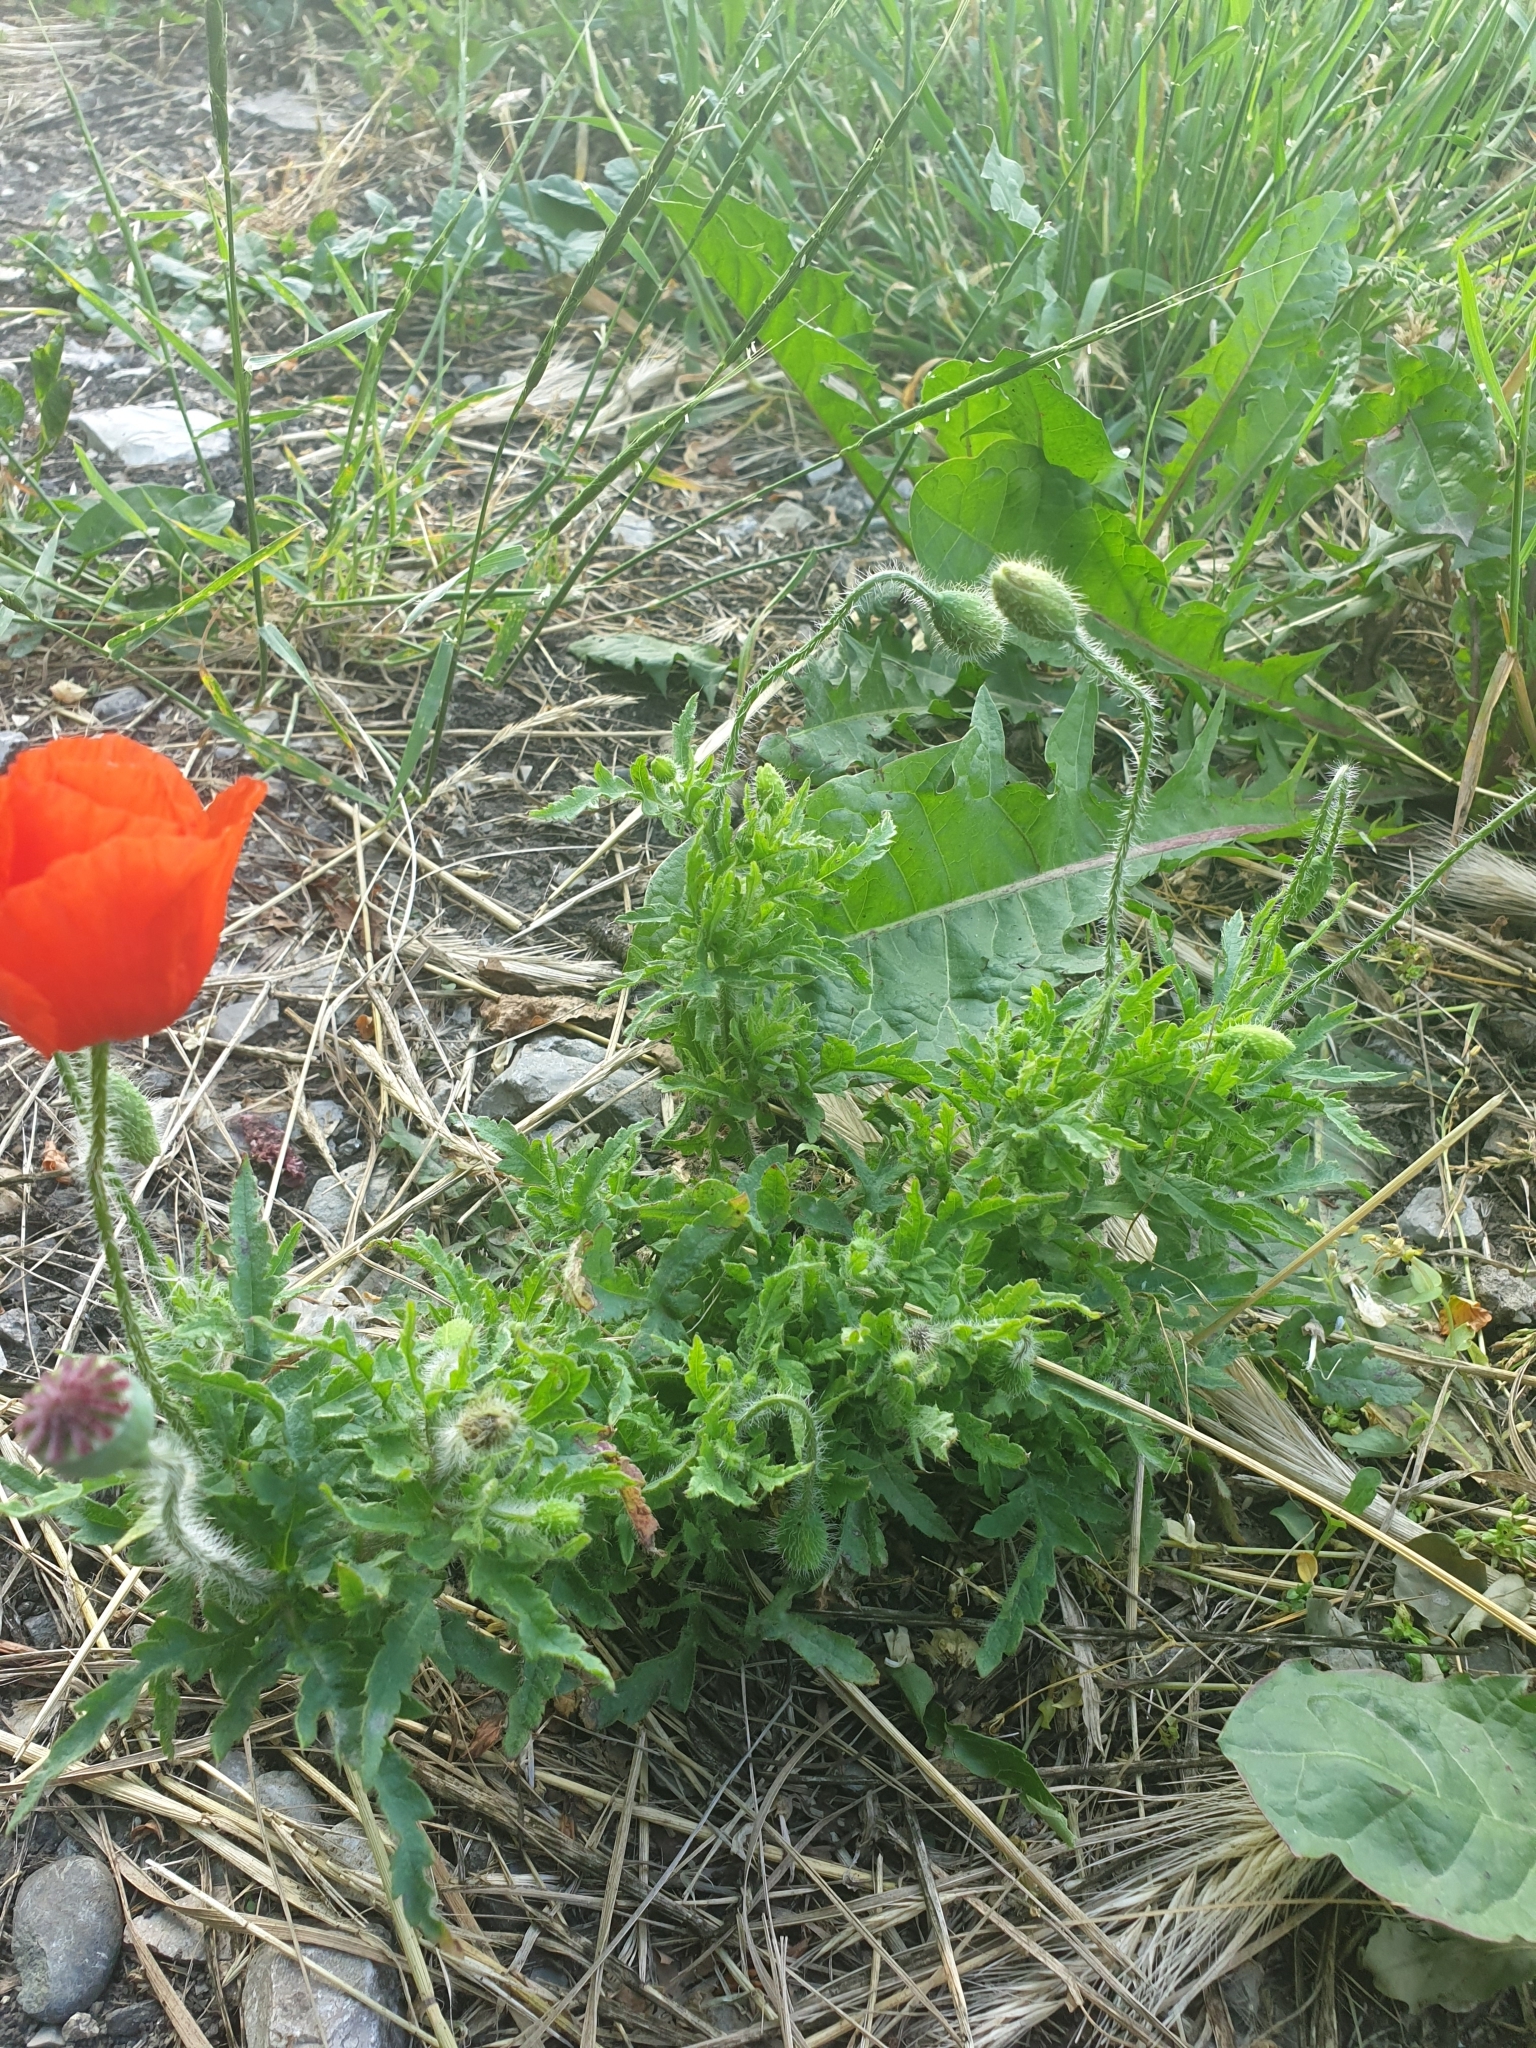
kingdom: Plantae
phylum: Tracheophyta
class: Magnoliopsida
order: Ranunculales
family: Papaveraceae
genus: Papaver
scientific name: Papaver rhoeas
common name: Corn poppy
